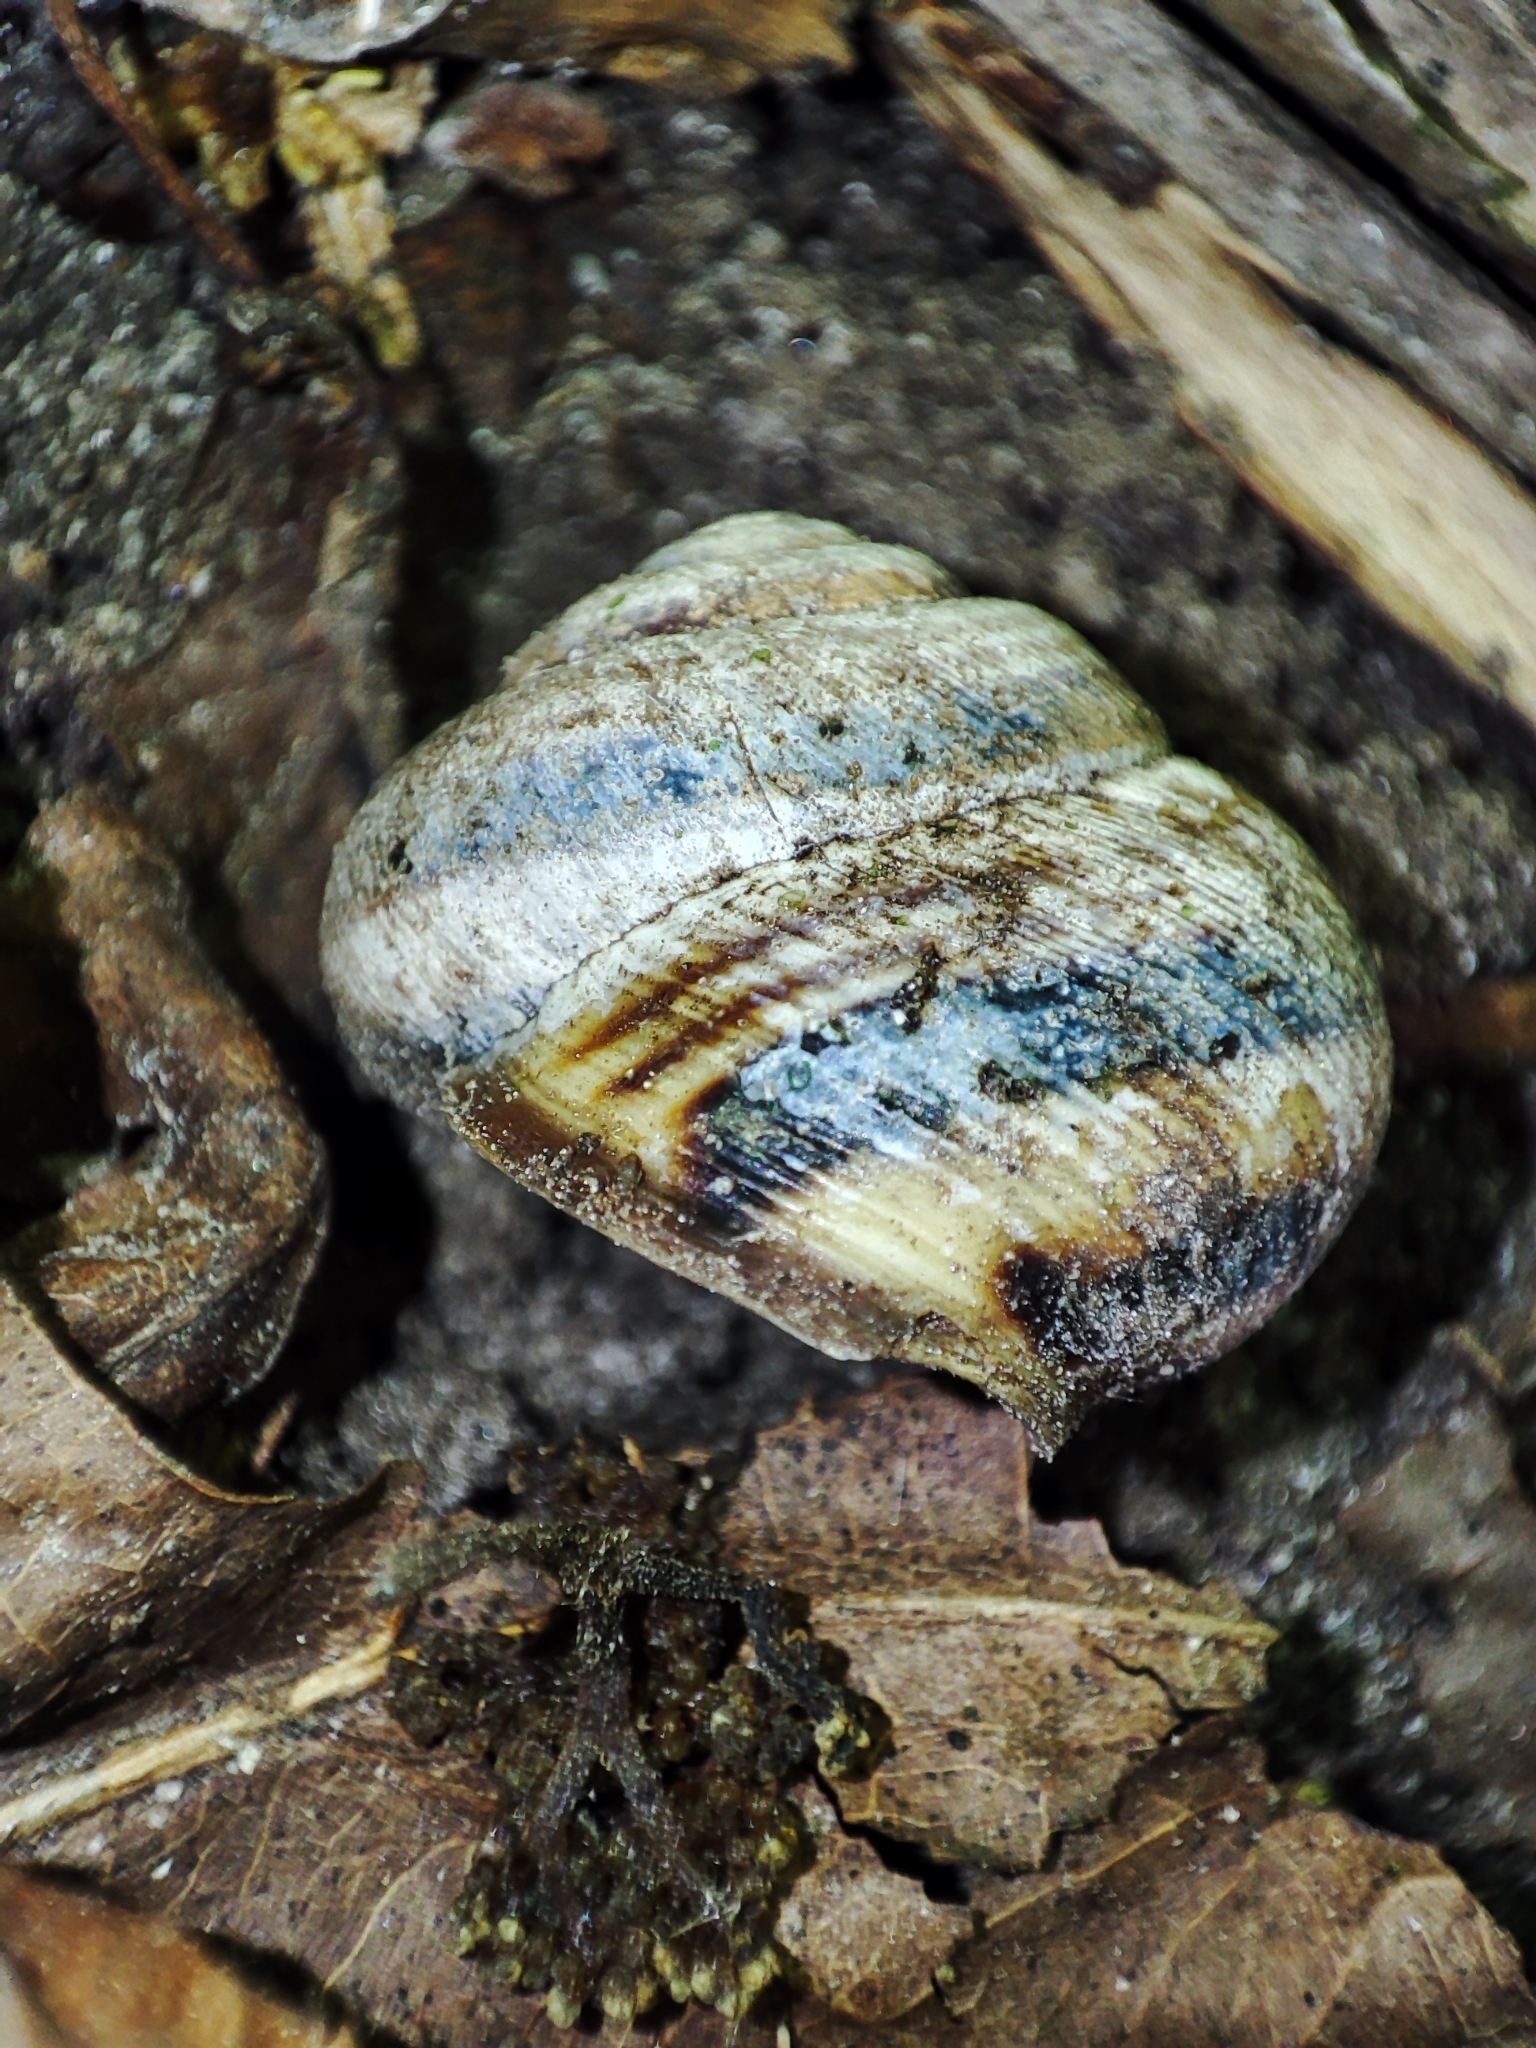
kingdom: Animalia
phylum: Mollusca
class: Gastropoda
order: Stylommatophora
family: Helicidae
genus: Caucasotachea
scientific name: Caucasotachea vindobonensis
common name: European helicid land snail
